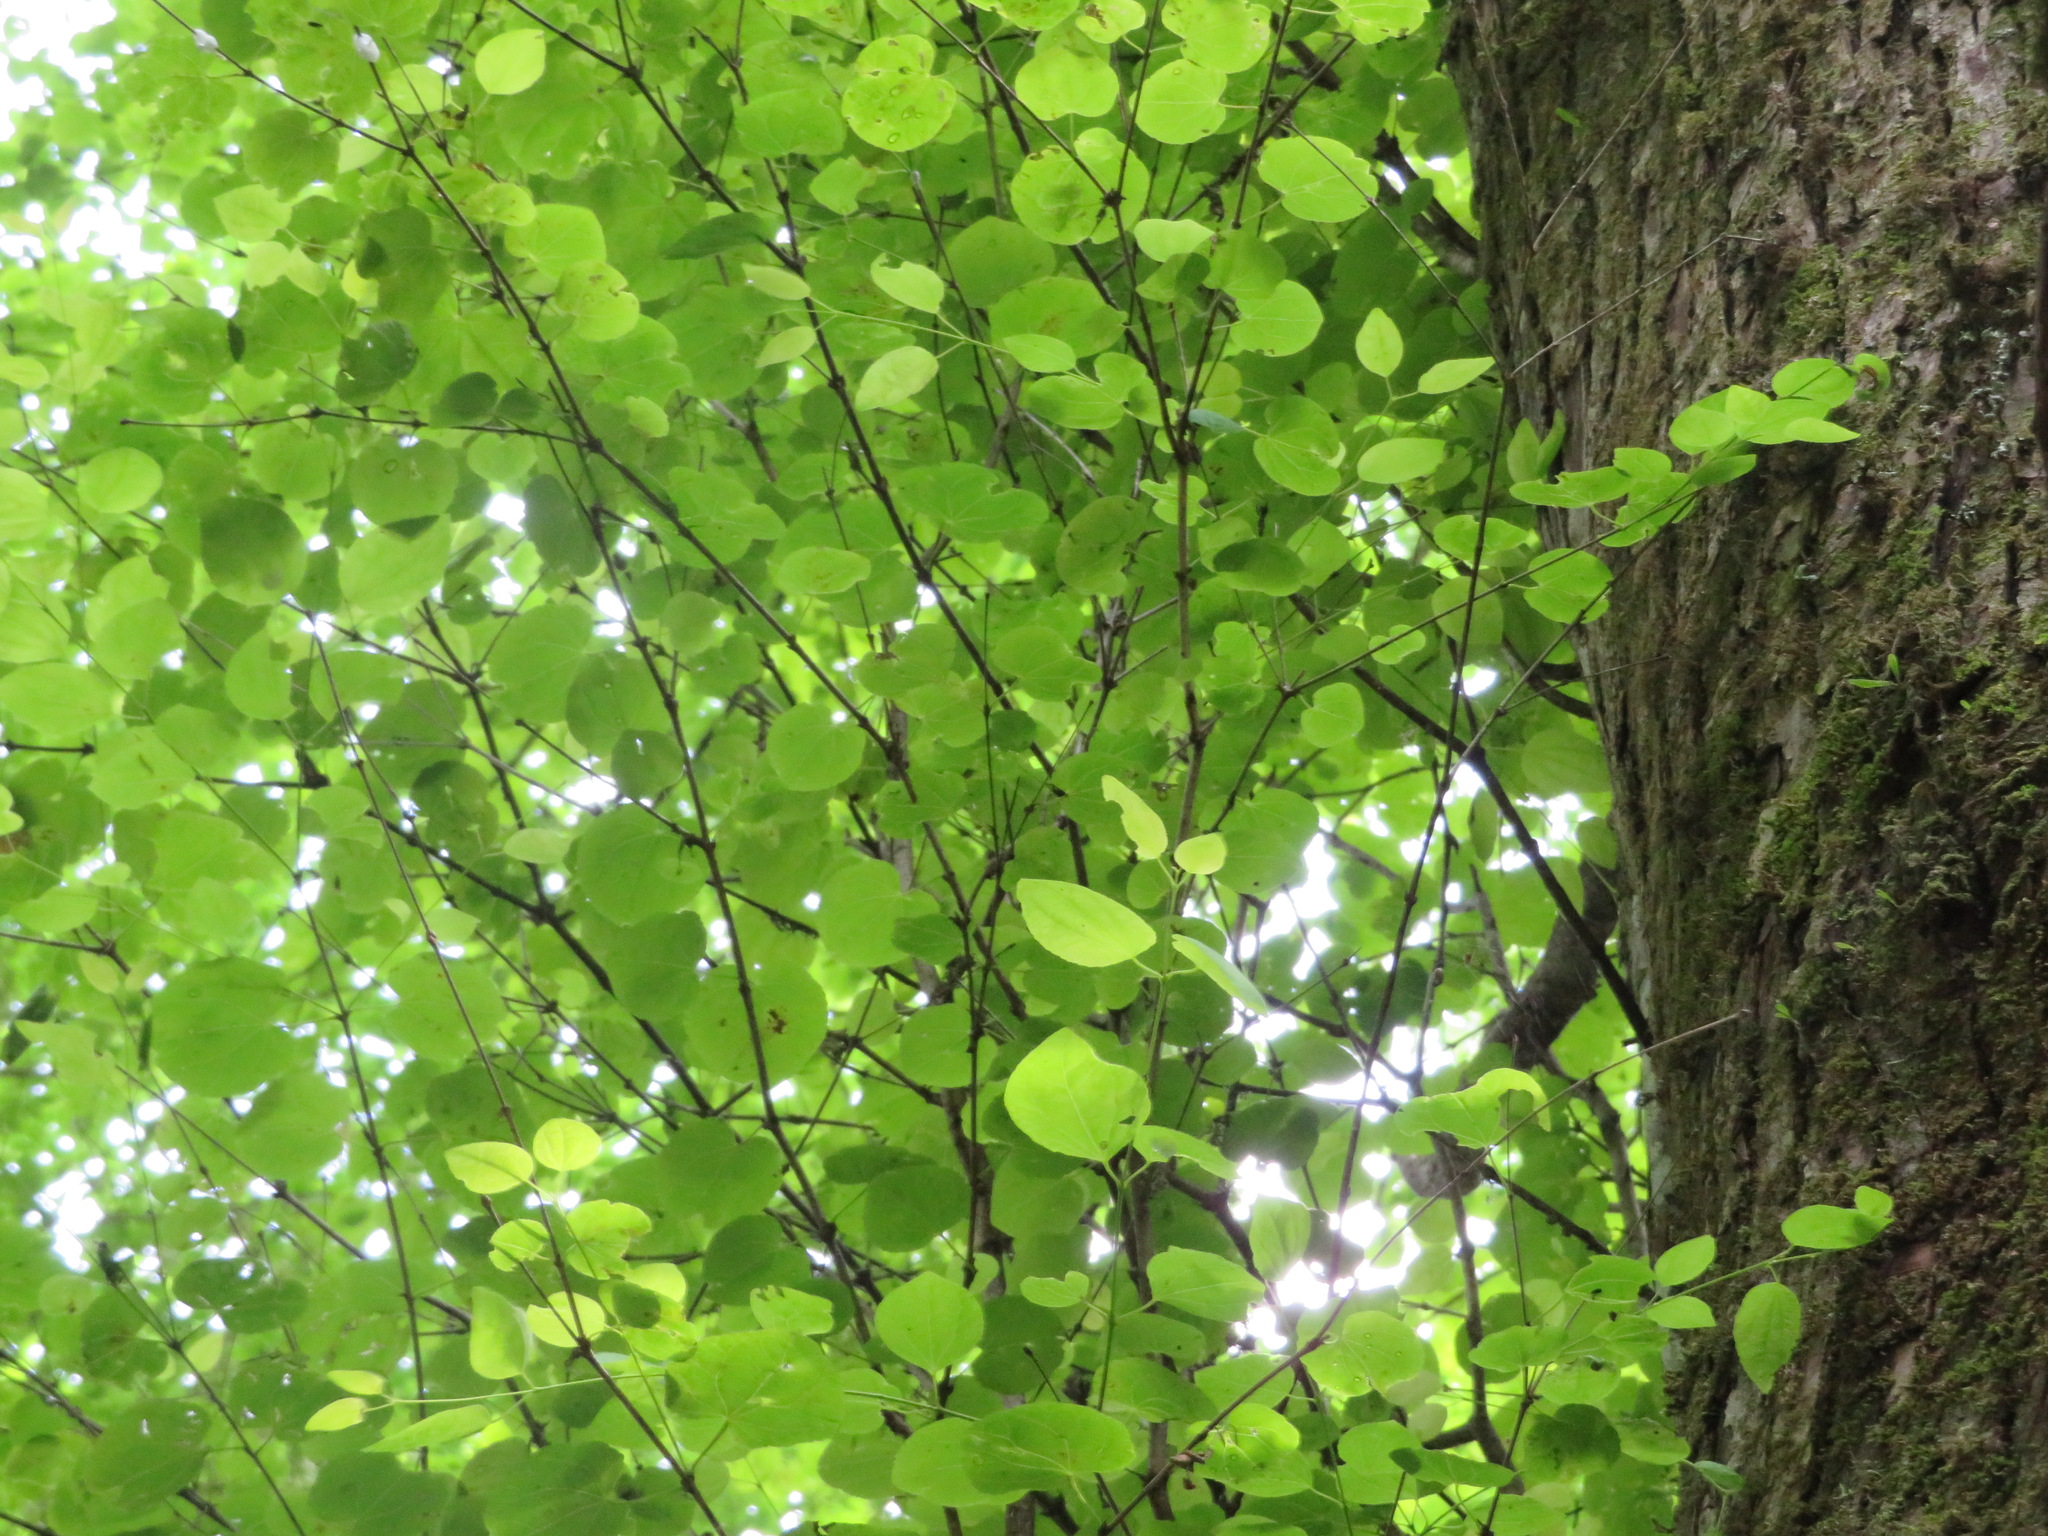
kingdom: Plantae
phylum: Tracheophyta
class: Magnoliopsida
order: Saxifragales
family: Cercidiphyllaceae
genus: Cercidiphyllum
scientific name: Cercidiphyllum japonicum
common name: Katsura tree
